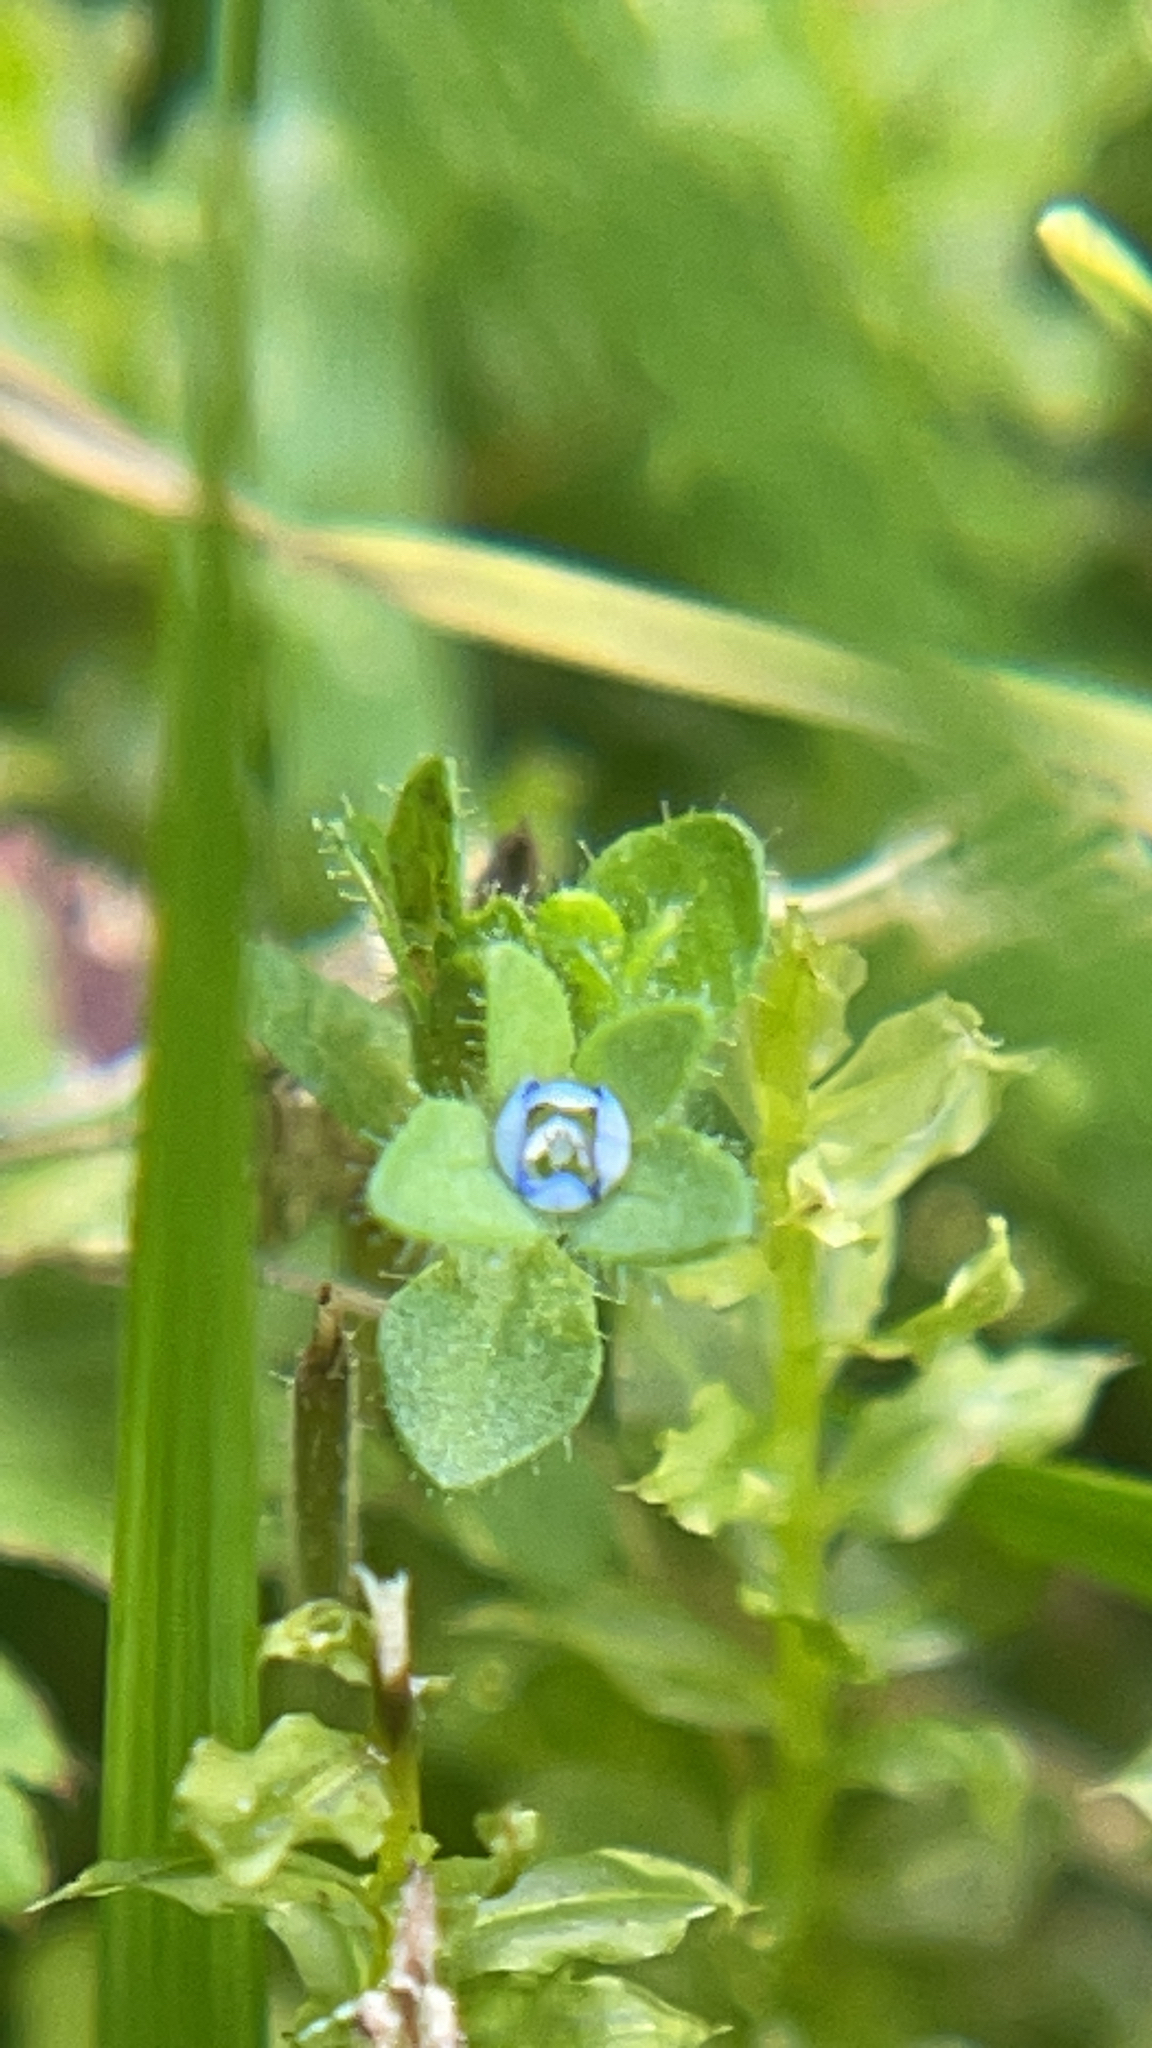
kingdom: Plantae
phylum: Tracheophyta
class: Magnoliopsida
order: Lamiales
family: Plantaginaceae
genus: Veronica
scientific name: Veronica arvensis
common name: Corn speedwell
